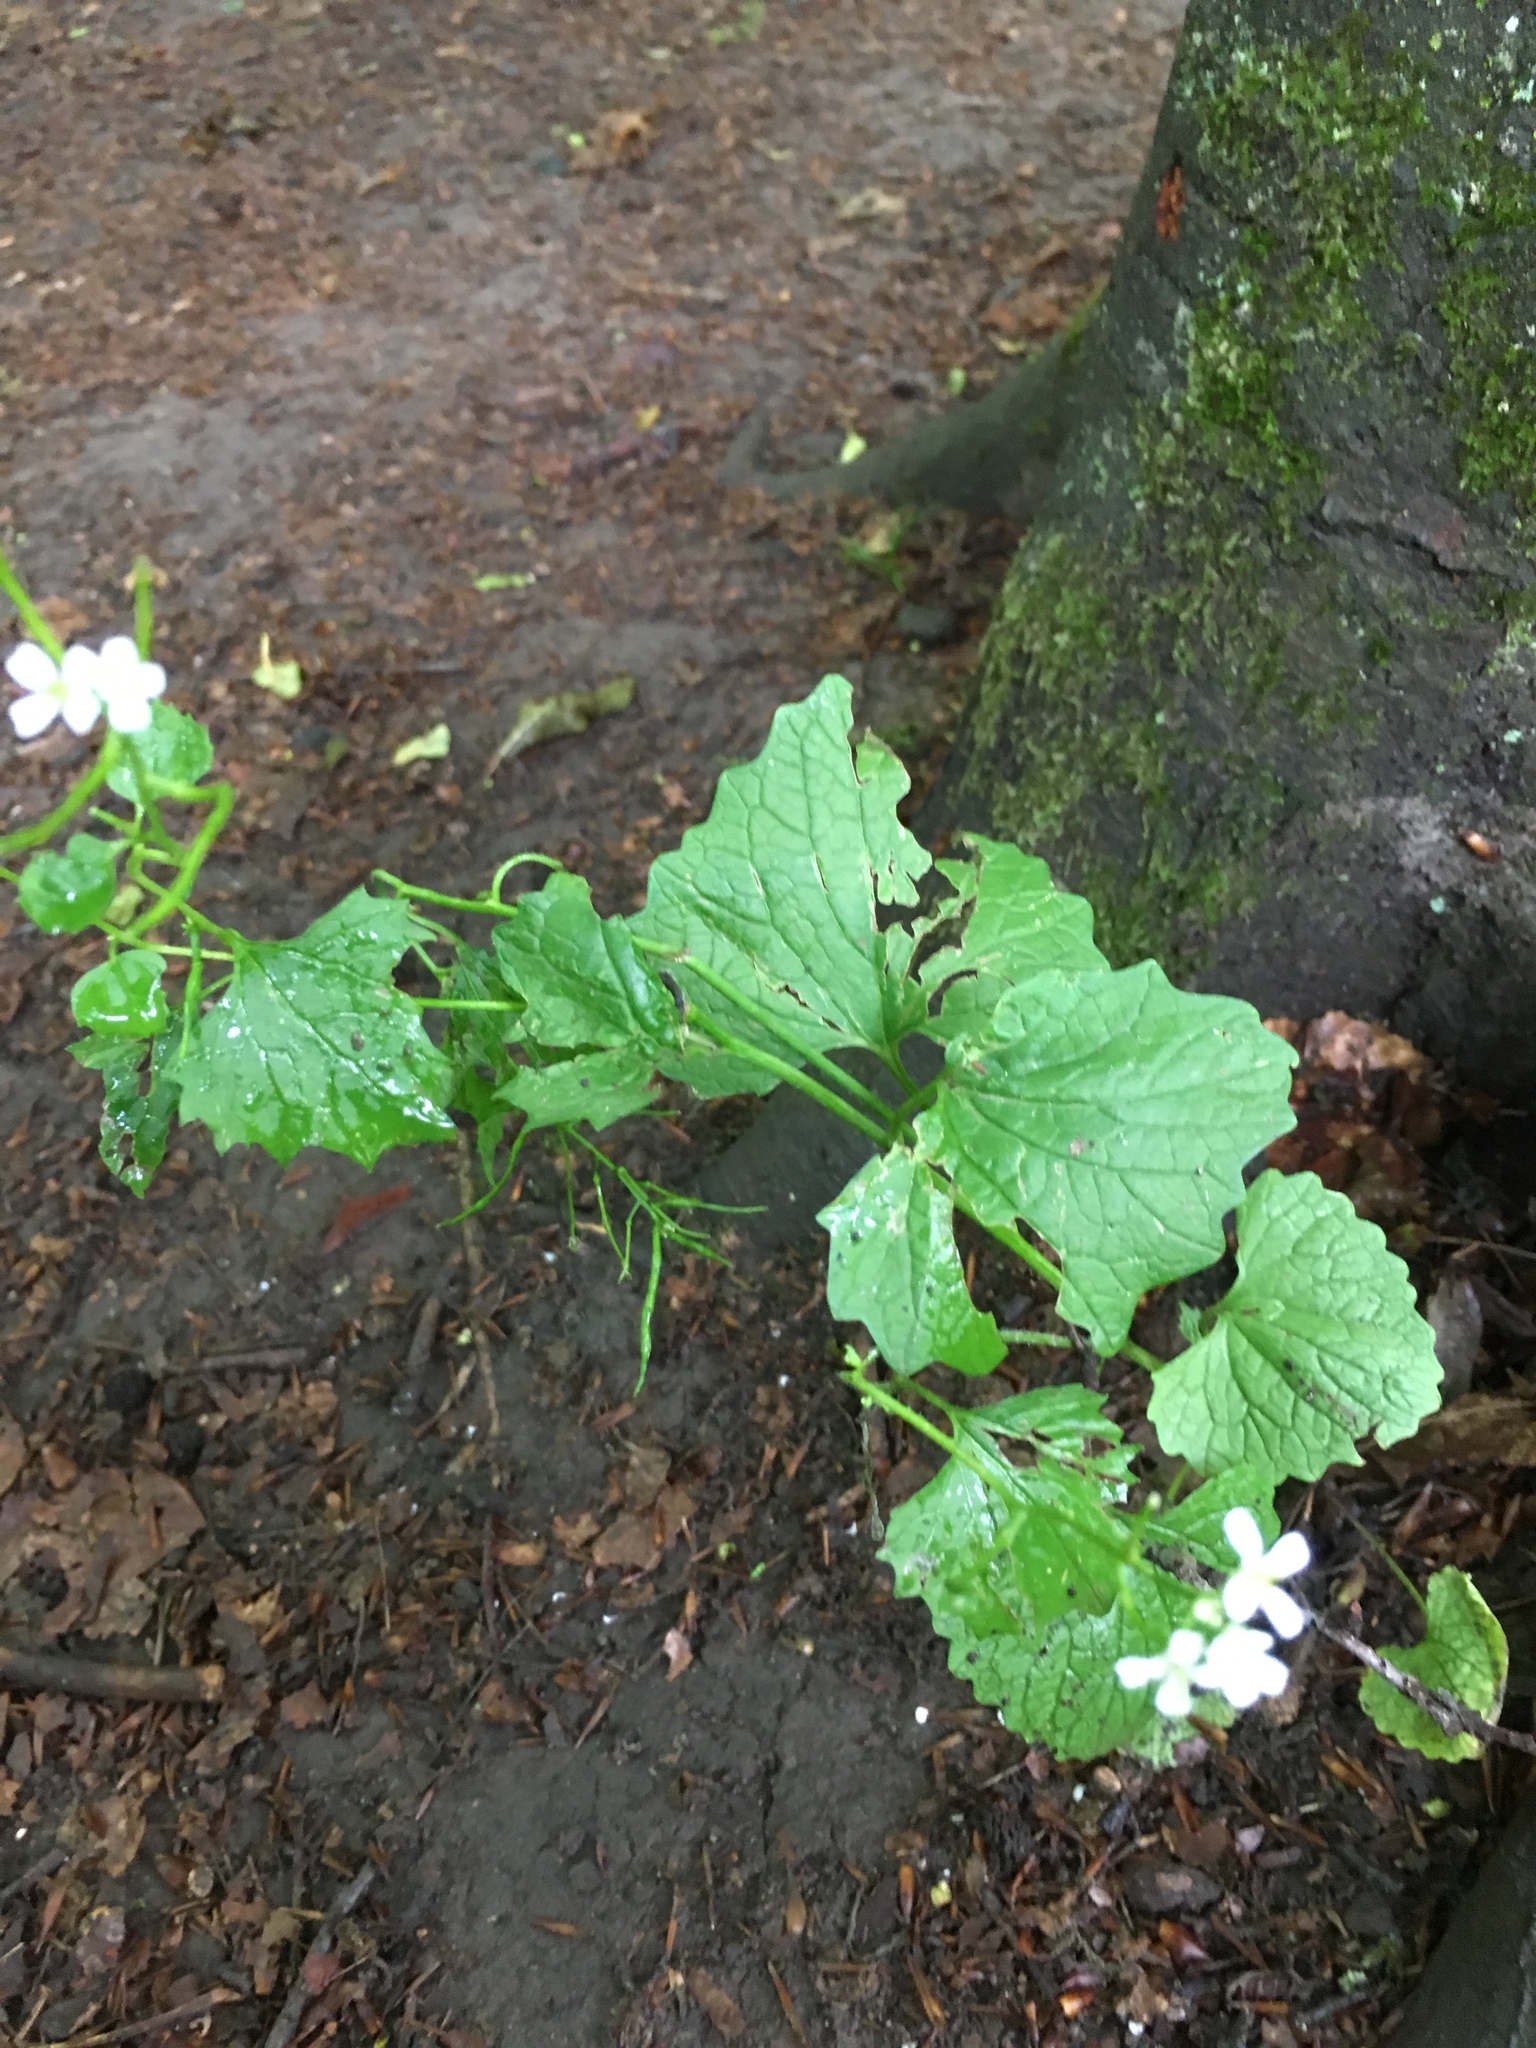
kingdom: Plantae
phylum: Tracheophyta
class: Magnoliopsida
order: Brassicales
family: Brassicaceae
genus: Alliaria
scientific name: Alliaria petiolata
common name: Garlic mustard
